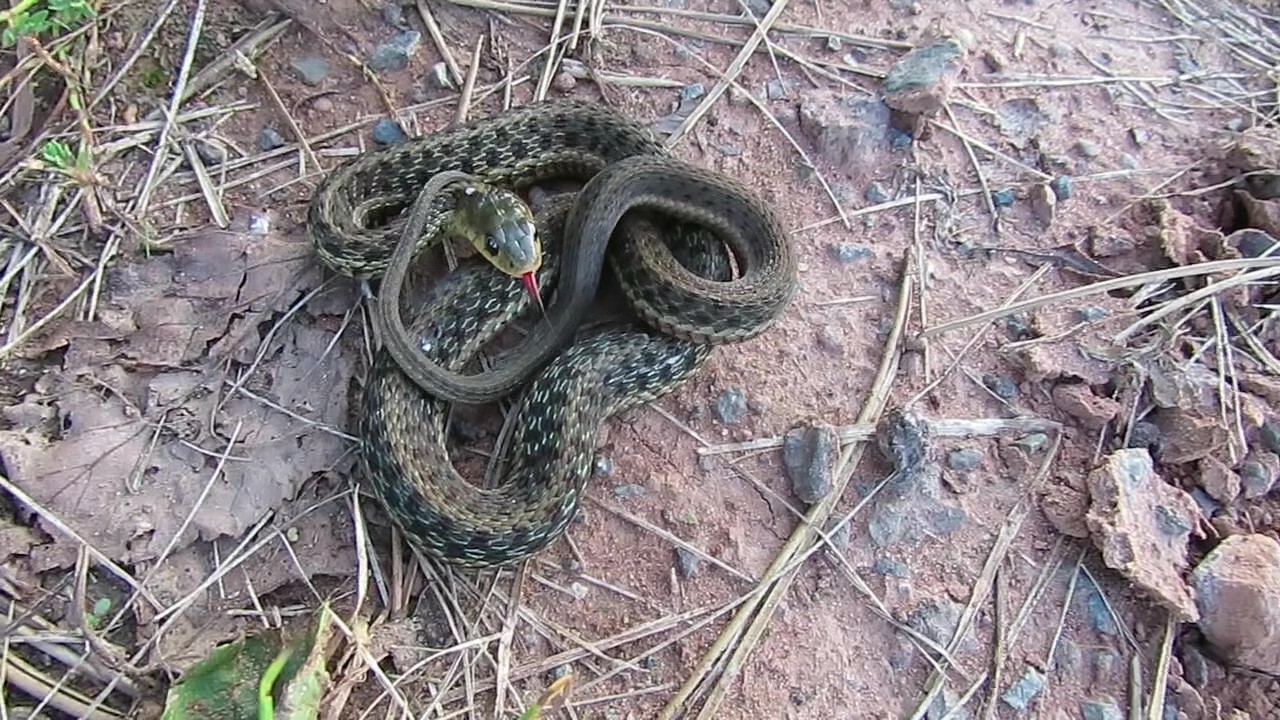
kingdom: Animalia
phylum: Chordata
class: Squamata
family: Colubridae
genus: Thamnophis
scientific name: Thamnophis sirtalis
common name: Common garter snake
